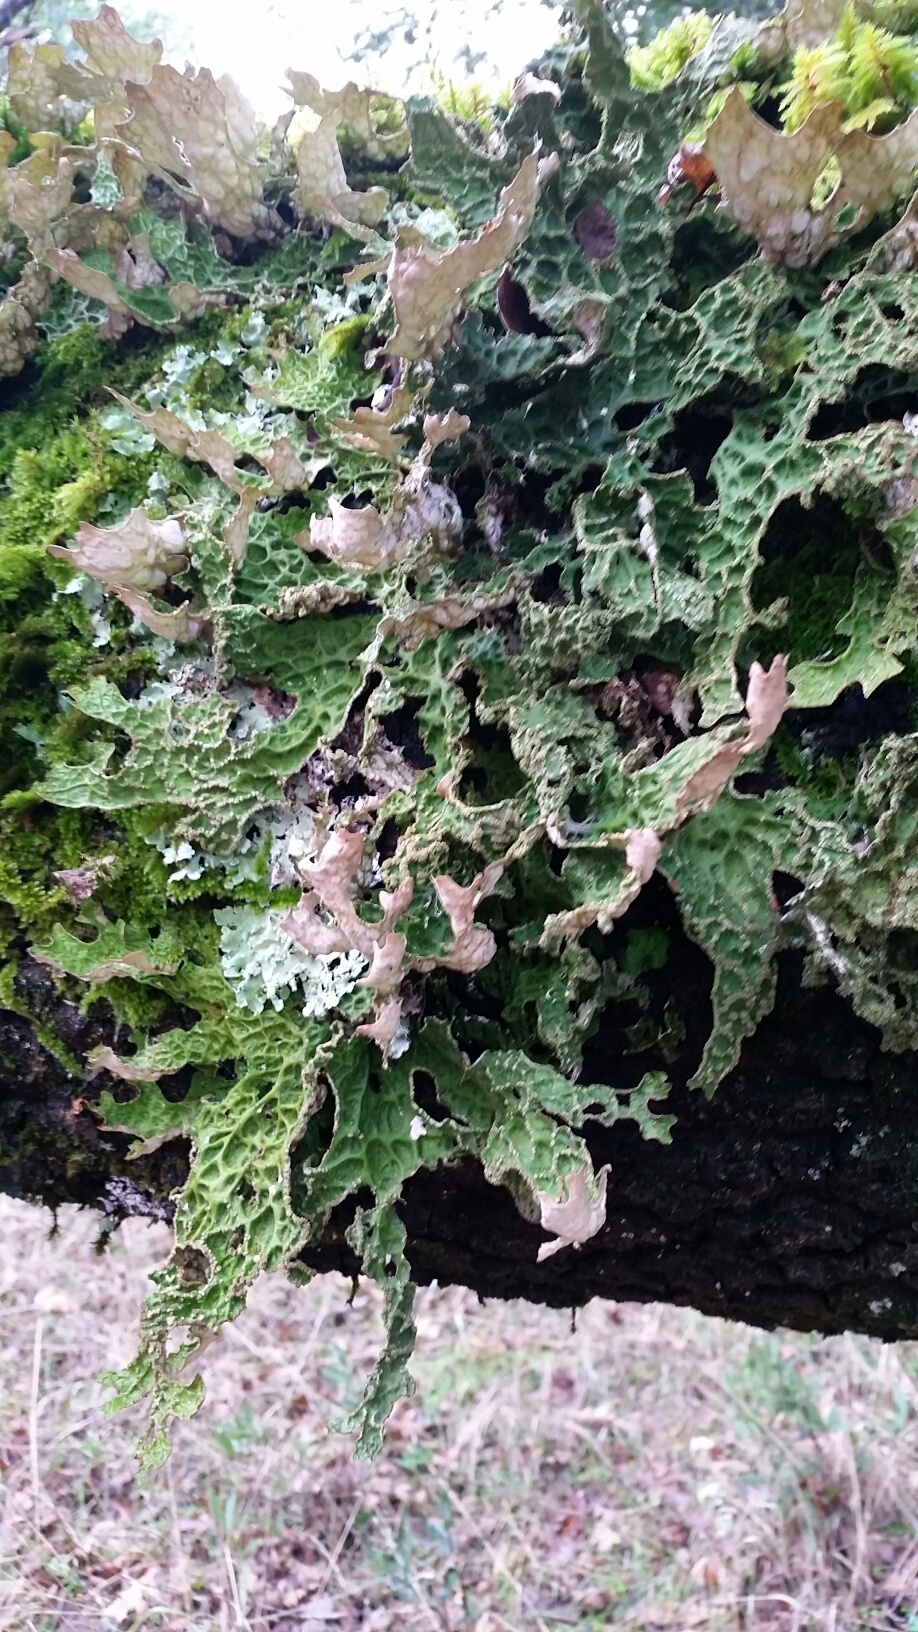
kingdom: Fungi
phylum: Ascomycota
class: Lecanoromycetes
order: Peltigerales
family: Lobariaceae
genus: Lobaria
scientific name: Lobaria pulmonaria
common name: Lungwort
